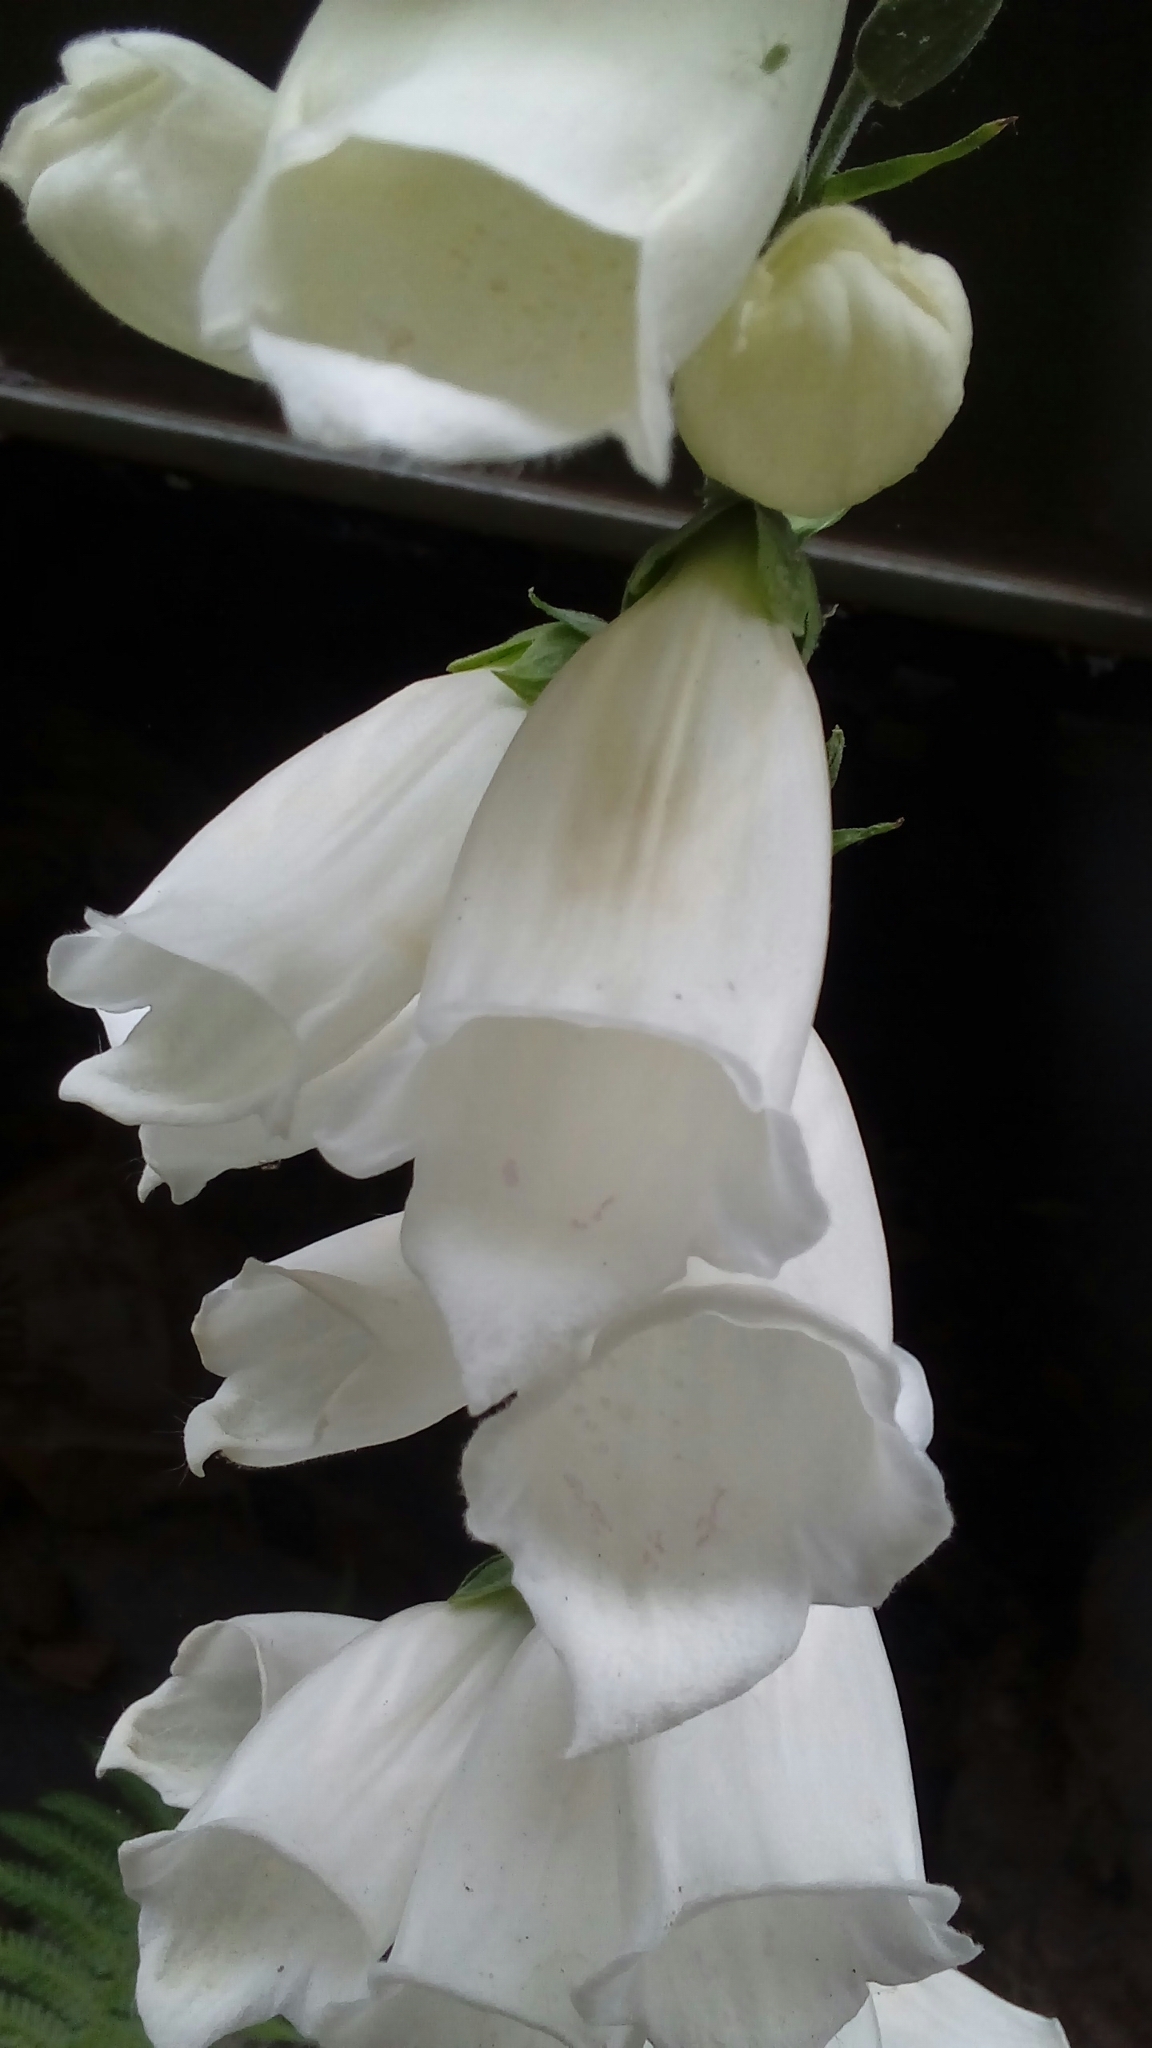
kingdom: Plantae
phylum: Tracheophyta
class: Magnoliopsida
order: Lamiales
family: Plantaginaceae
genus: Digitalis
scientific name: Digitalis purpurea
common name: Foxglove
